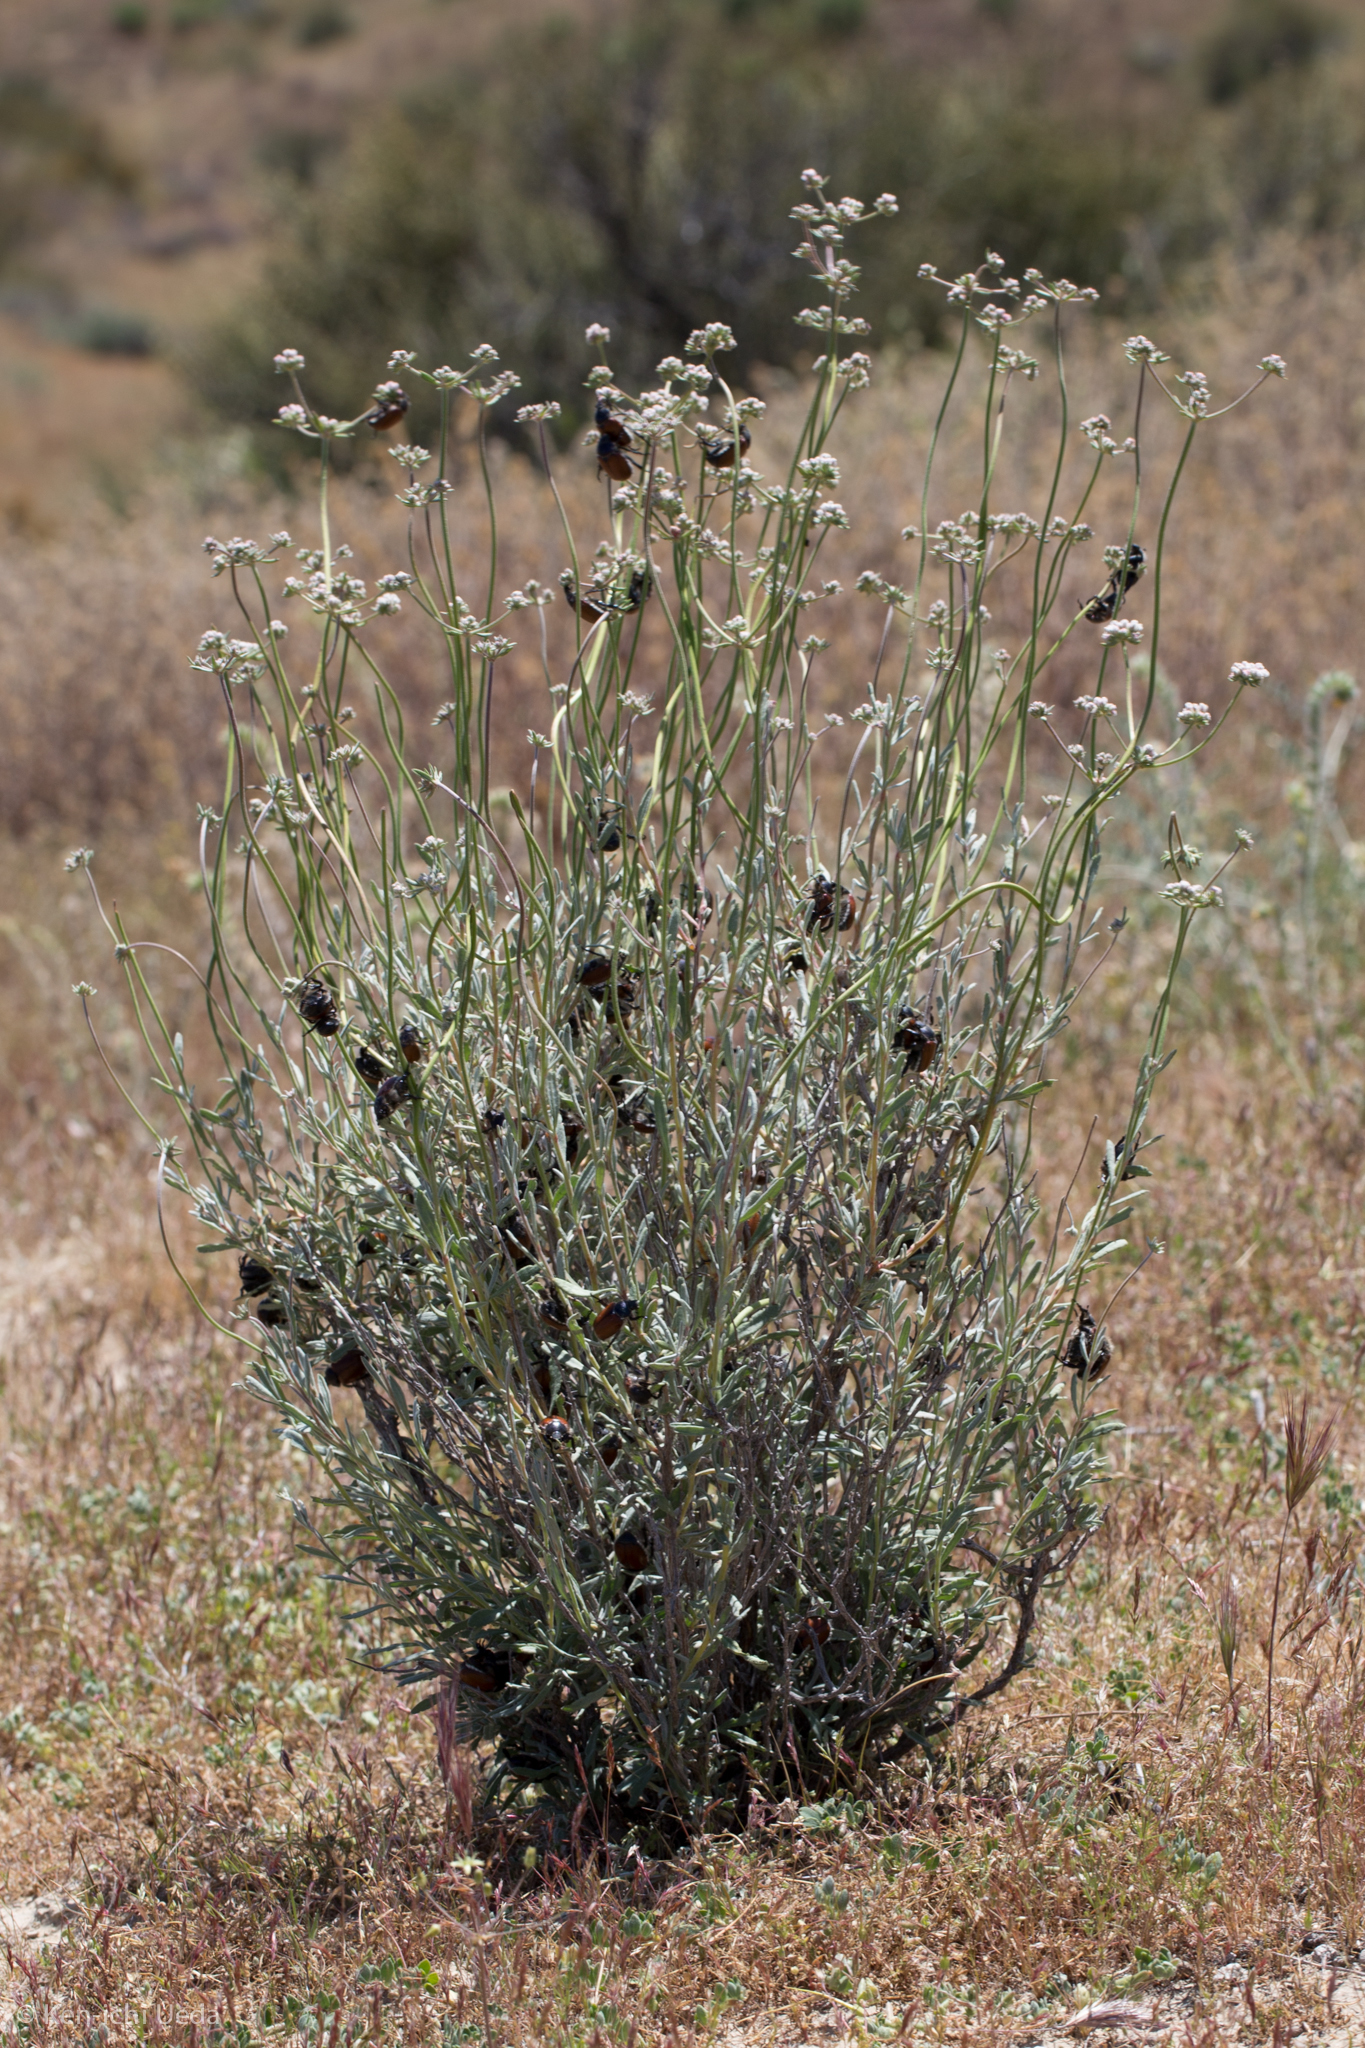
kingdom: Animalia
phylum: Arthropoda
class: Insecta
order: Coleoptera
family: Scarabaeidae
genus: Paracotalpa
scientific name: Paracotalpa ursina
